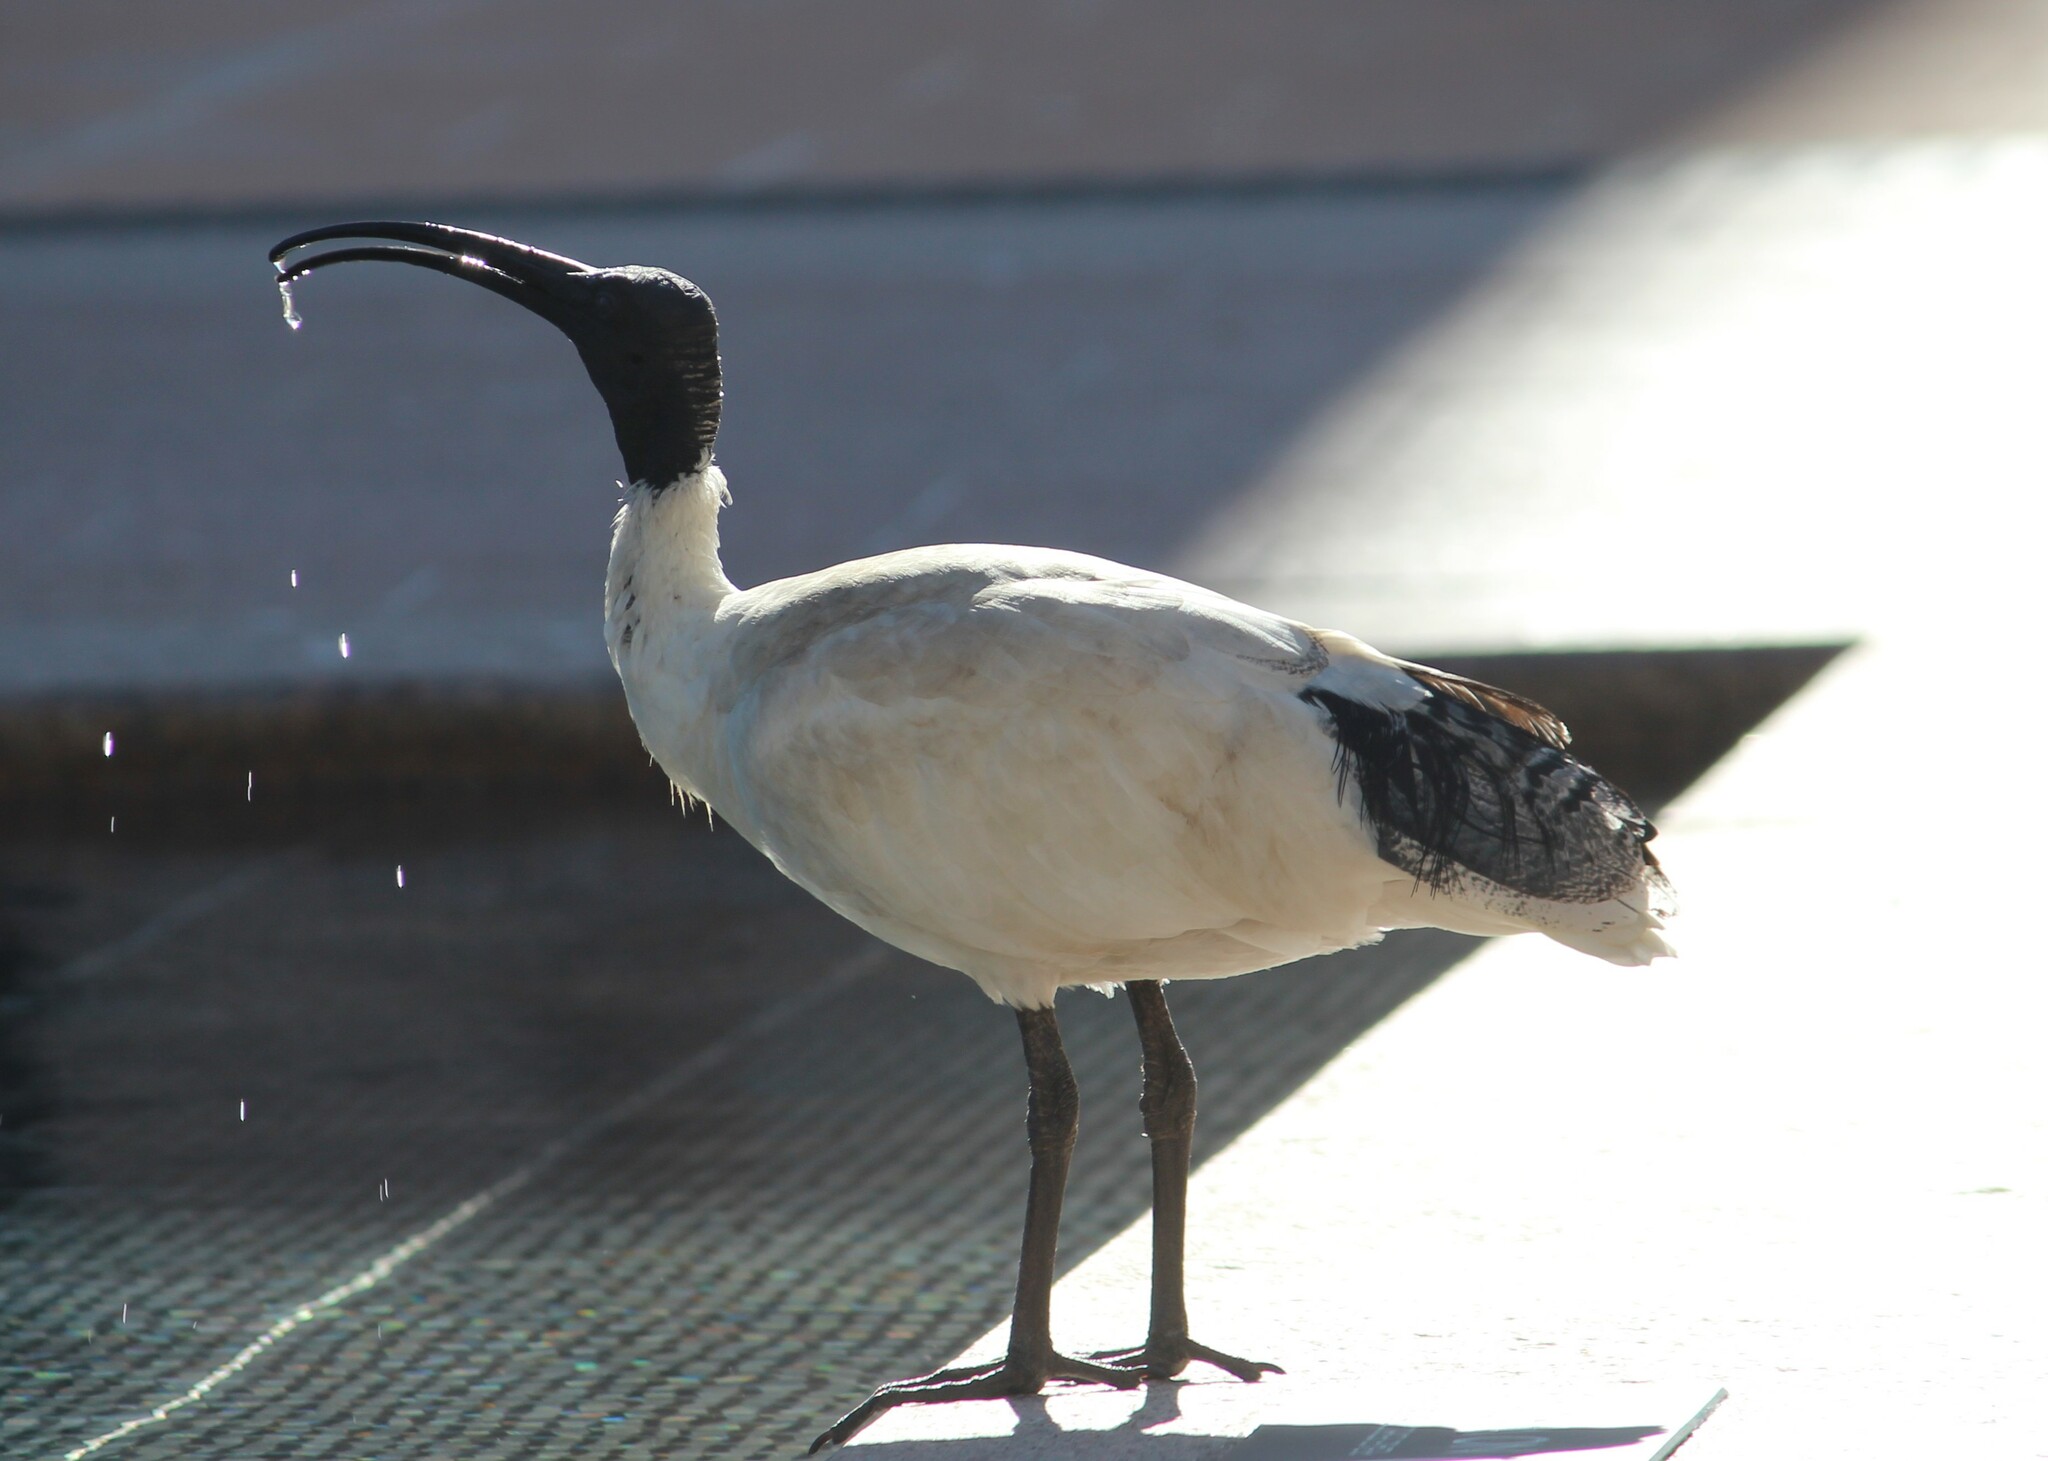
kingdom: Animalia
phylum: Chordata
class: Aves
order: Pelecaniformes
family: Threskiornithidae
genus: Threskiornis
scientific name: Threskiornis molucca
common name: Australian white ibis
